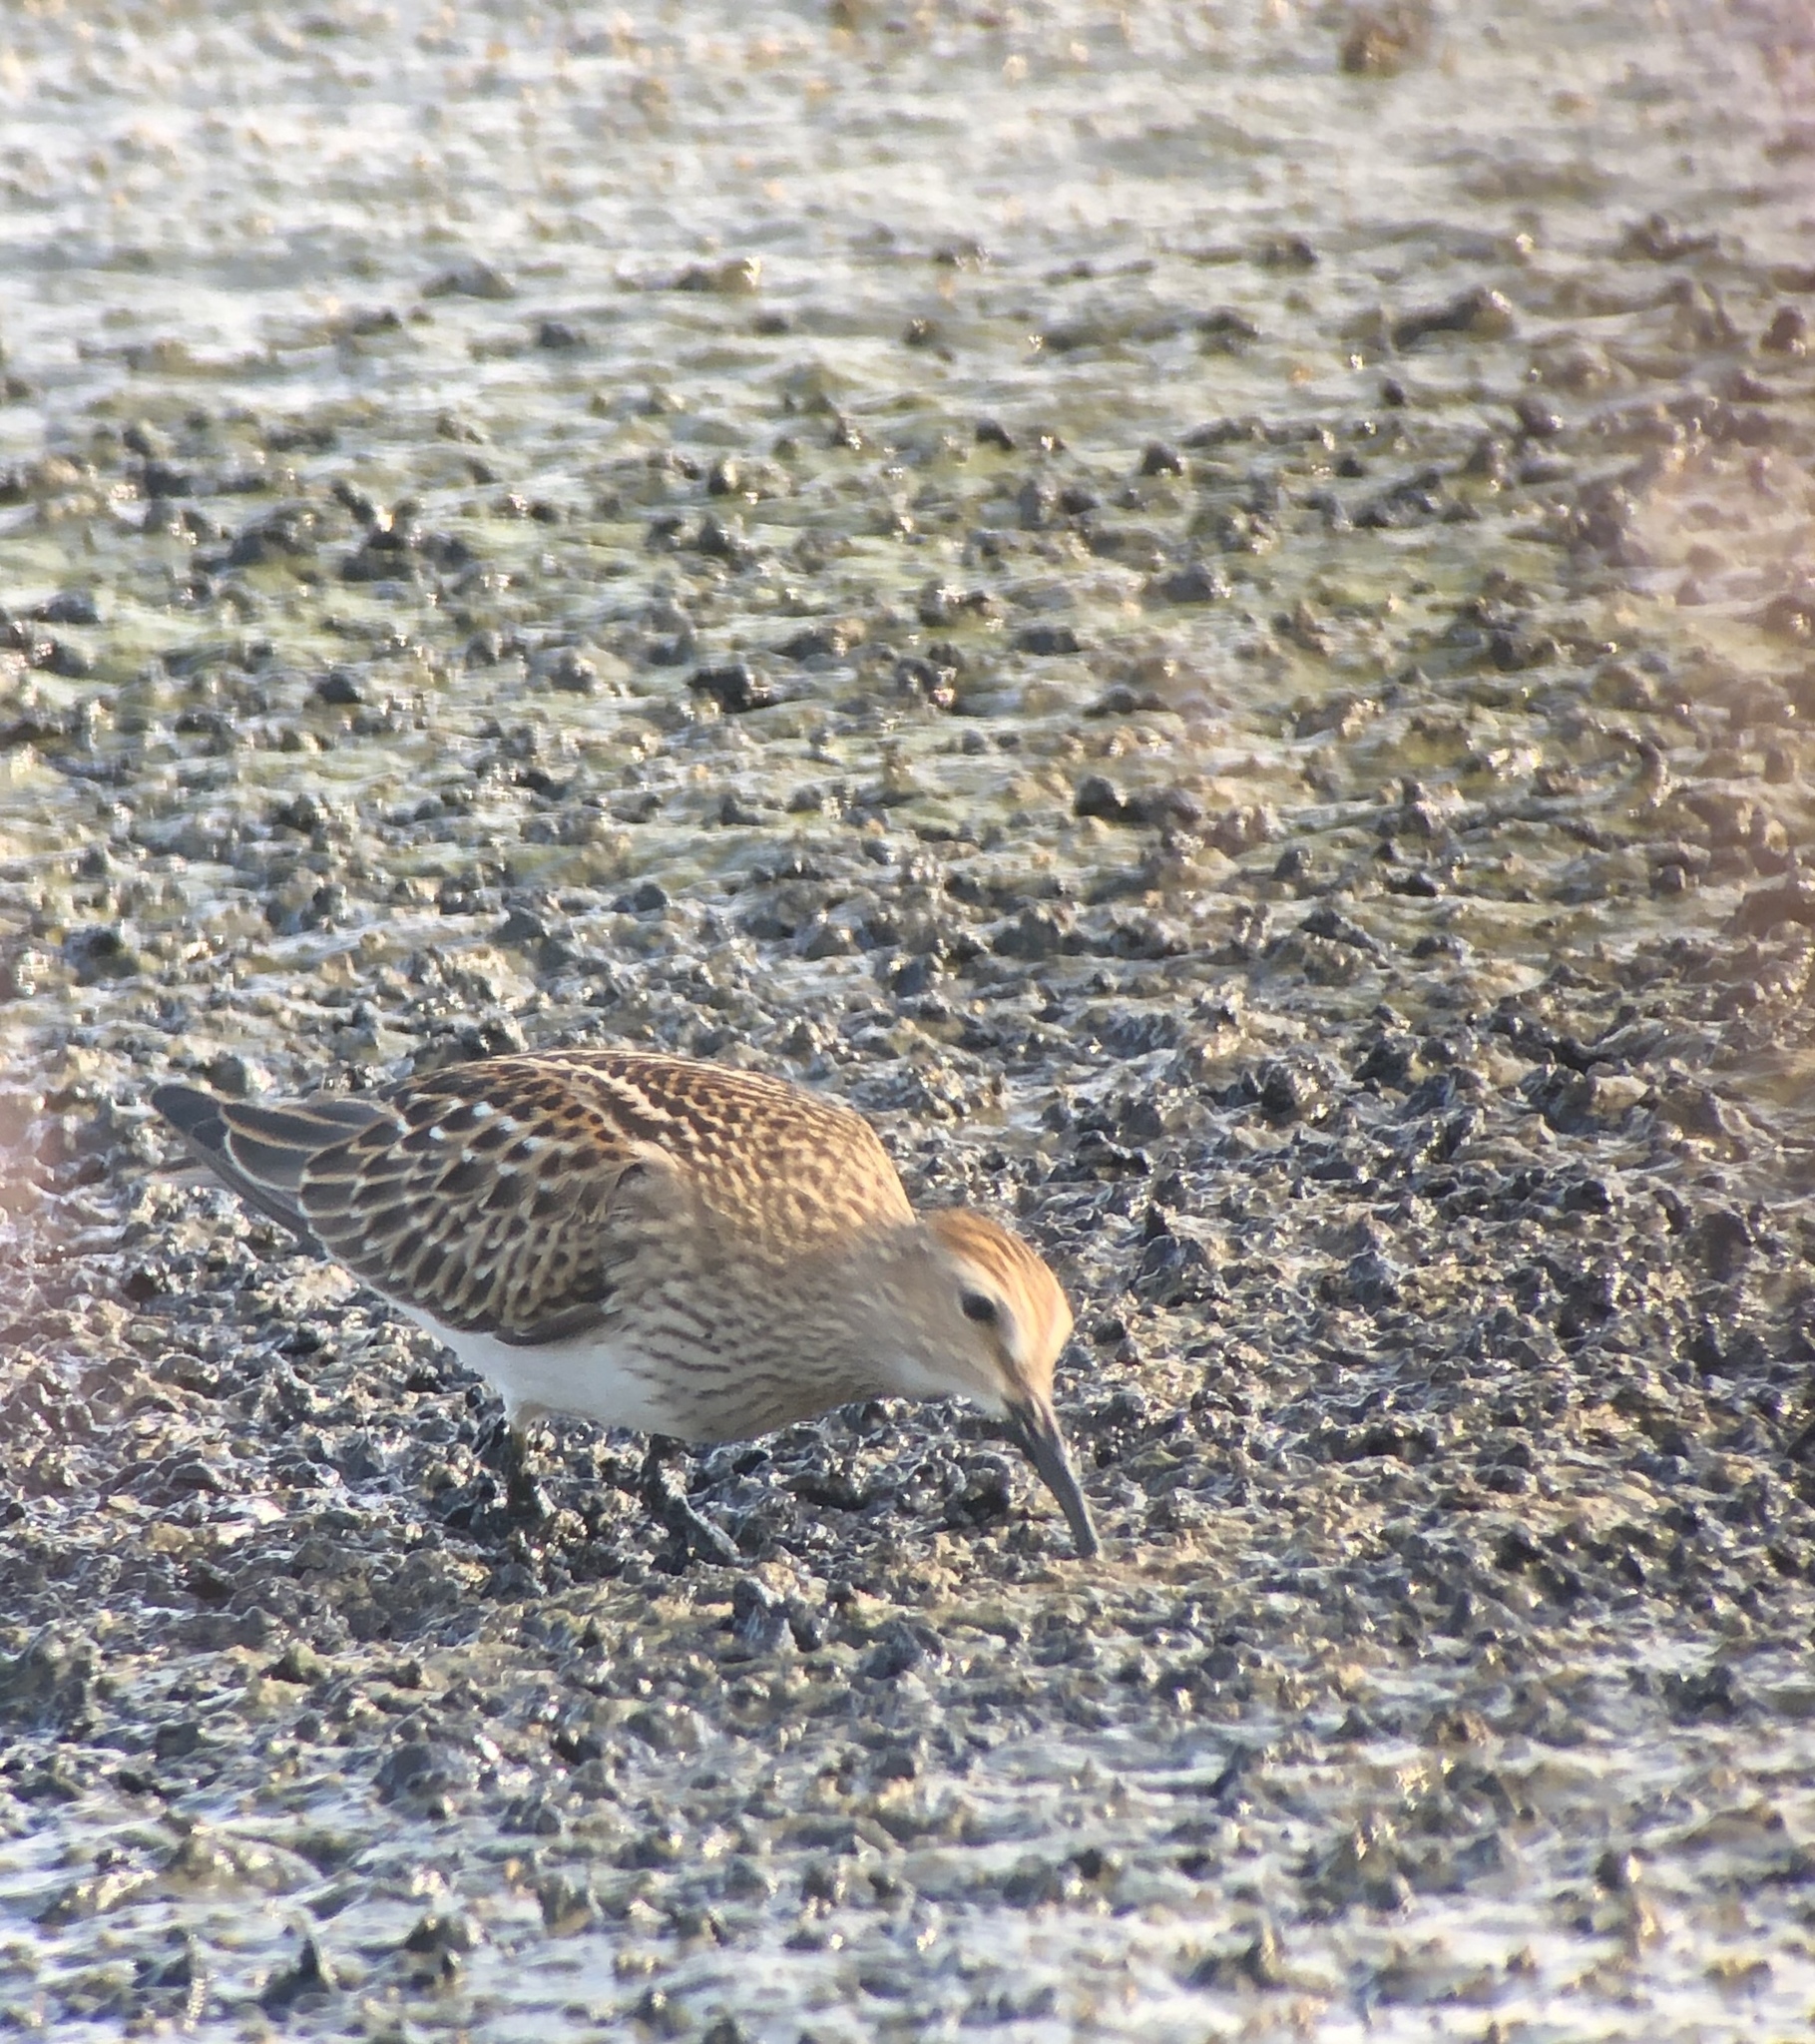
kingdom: Animalia
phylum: Chordata
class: Aves
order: Charadriiformes
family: Scolopacidae
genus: Calidris
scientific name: Calidris melanotos
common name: Pectoral sandpiper
